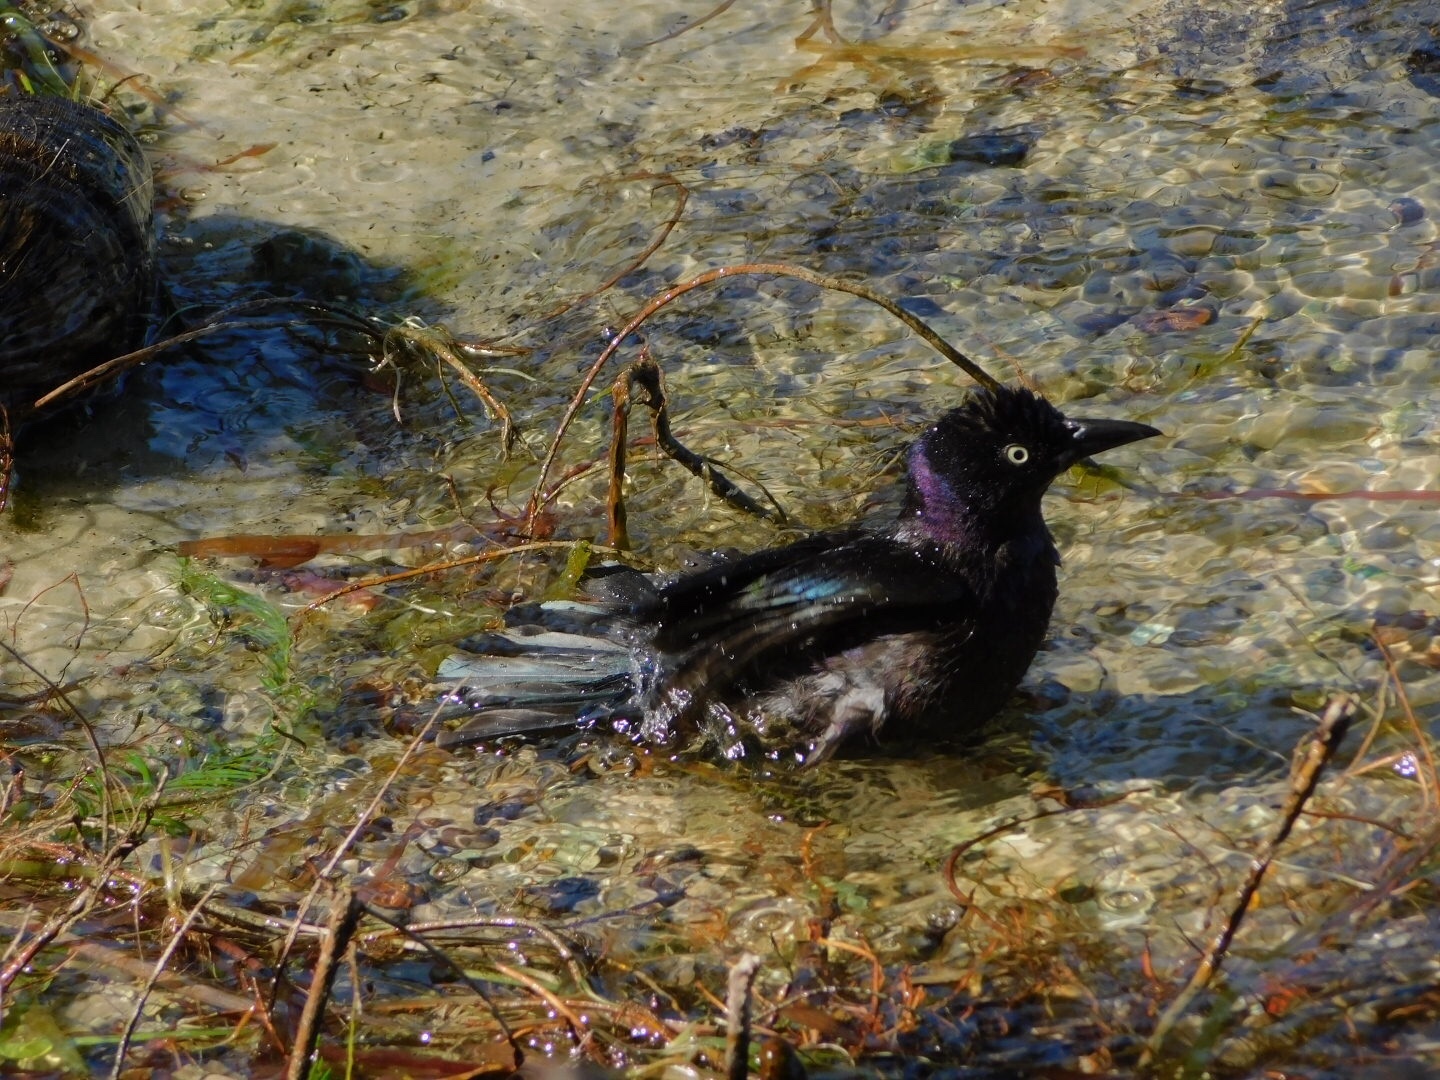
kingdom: Animalia
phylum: Chordata
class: Aves
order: Passeriformes
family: Icteridae
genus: Quiscalus
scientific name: Quiscalus quiscula
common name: Common grackle
